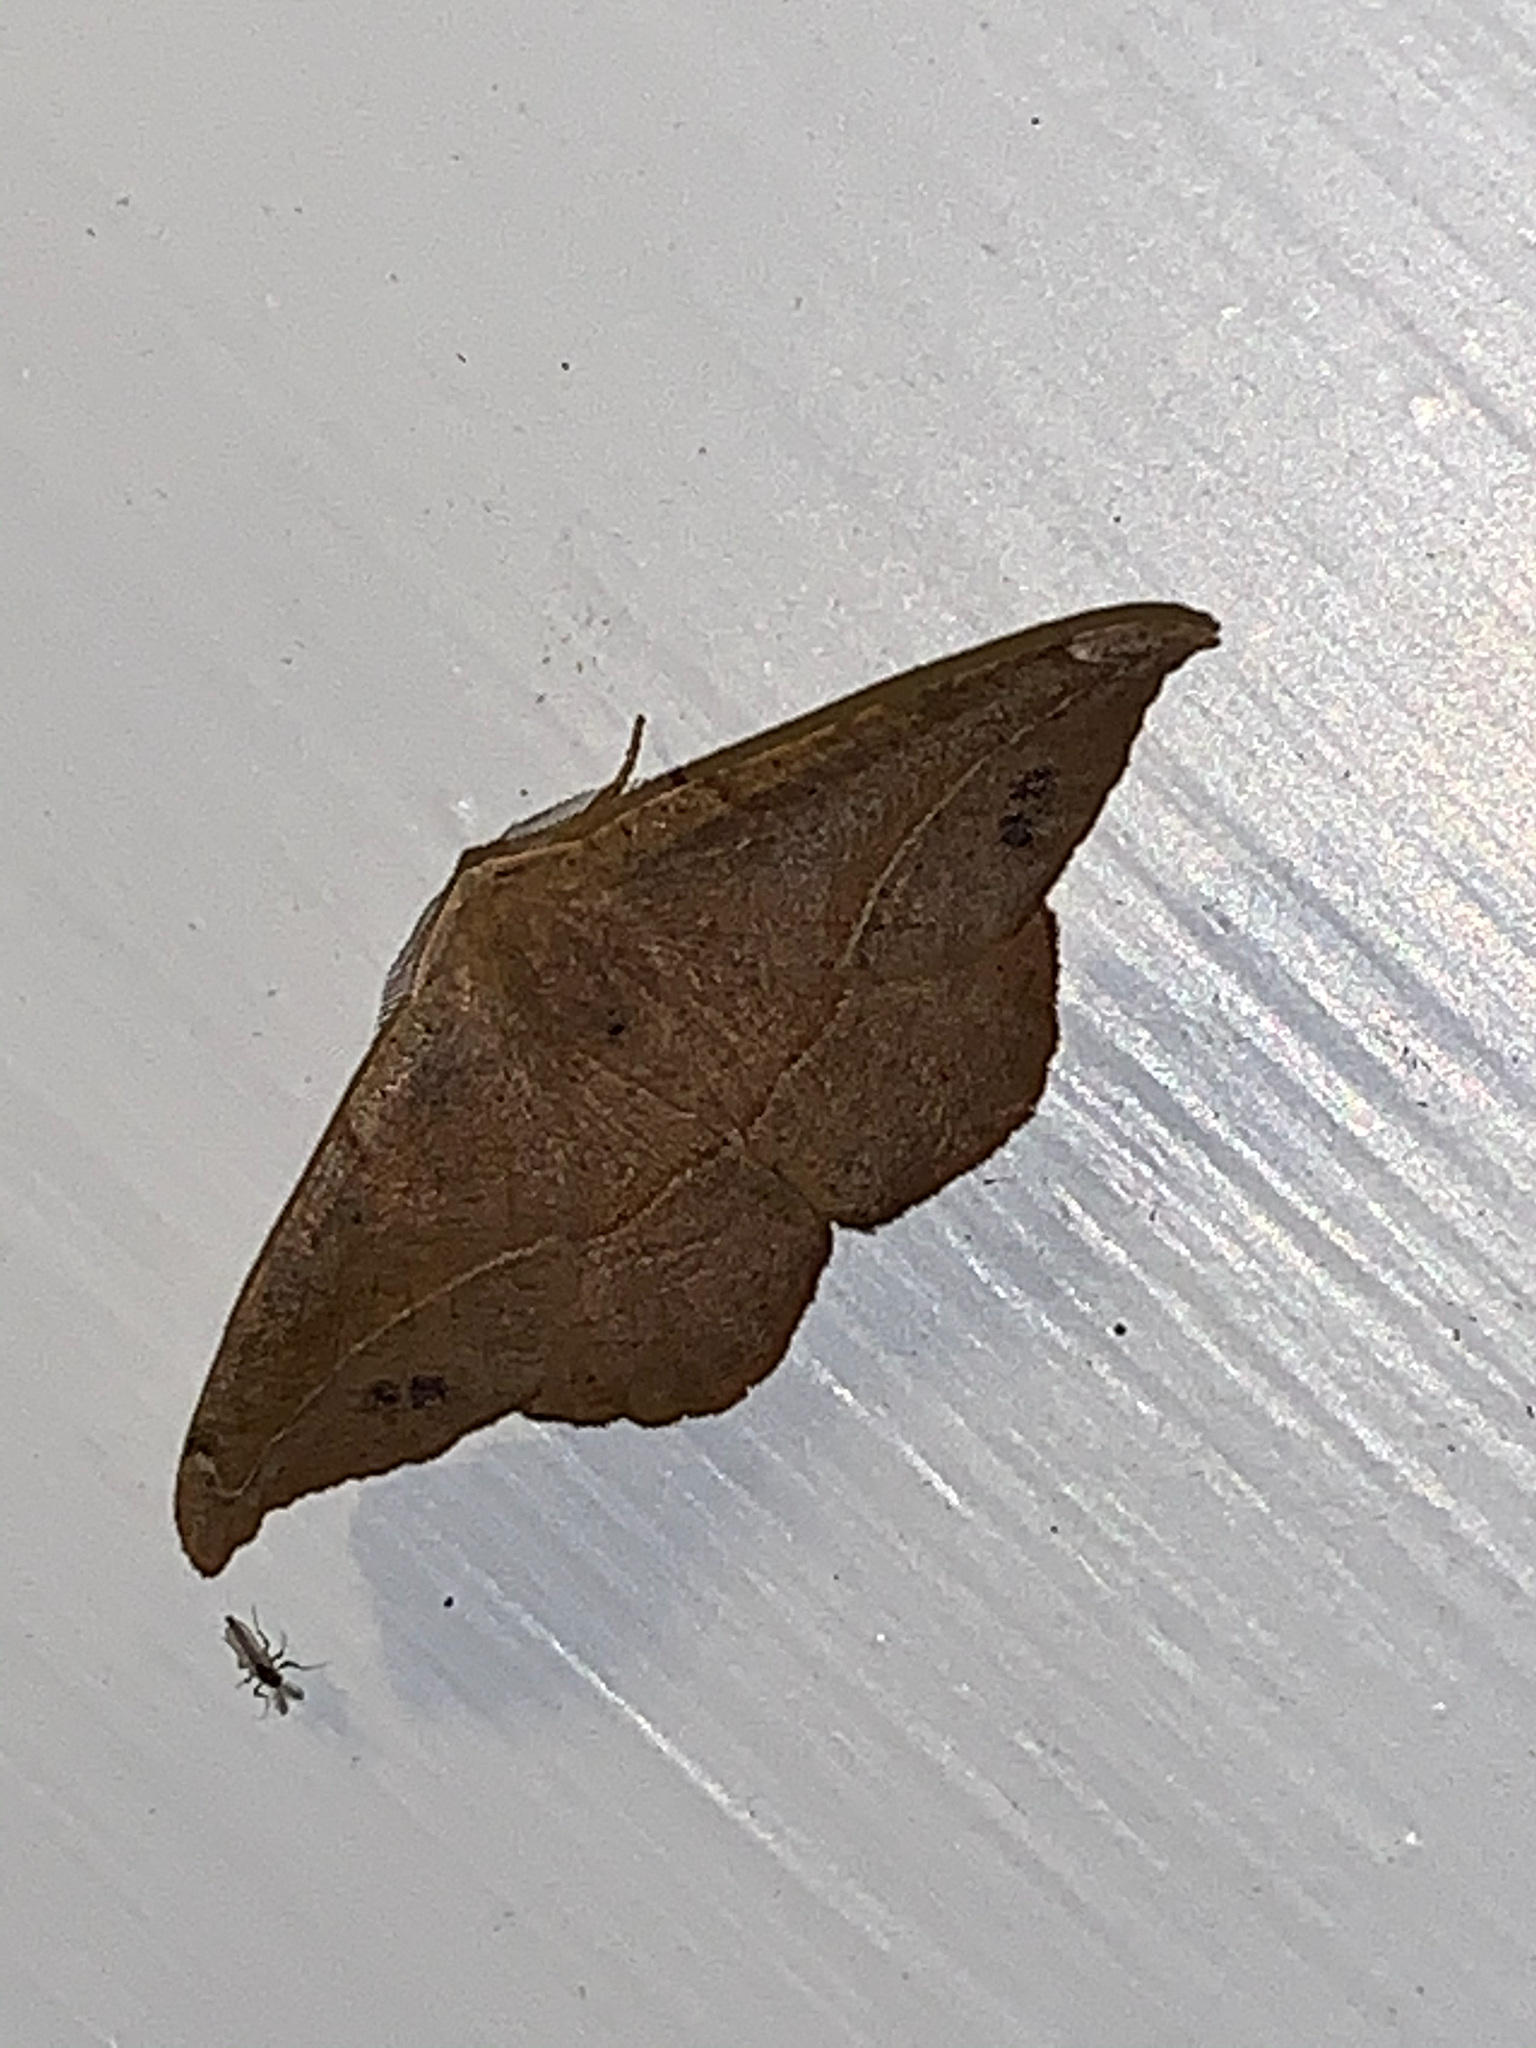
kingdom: Animalia
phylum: Arthropoda
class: Insecta
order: Lepidoptera
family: Geometridae
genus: Patalene
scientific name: Patalene olyzonaria
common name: Juniper geometer moth
